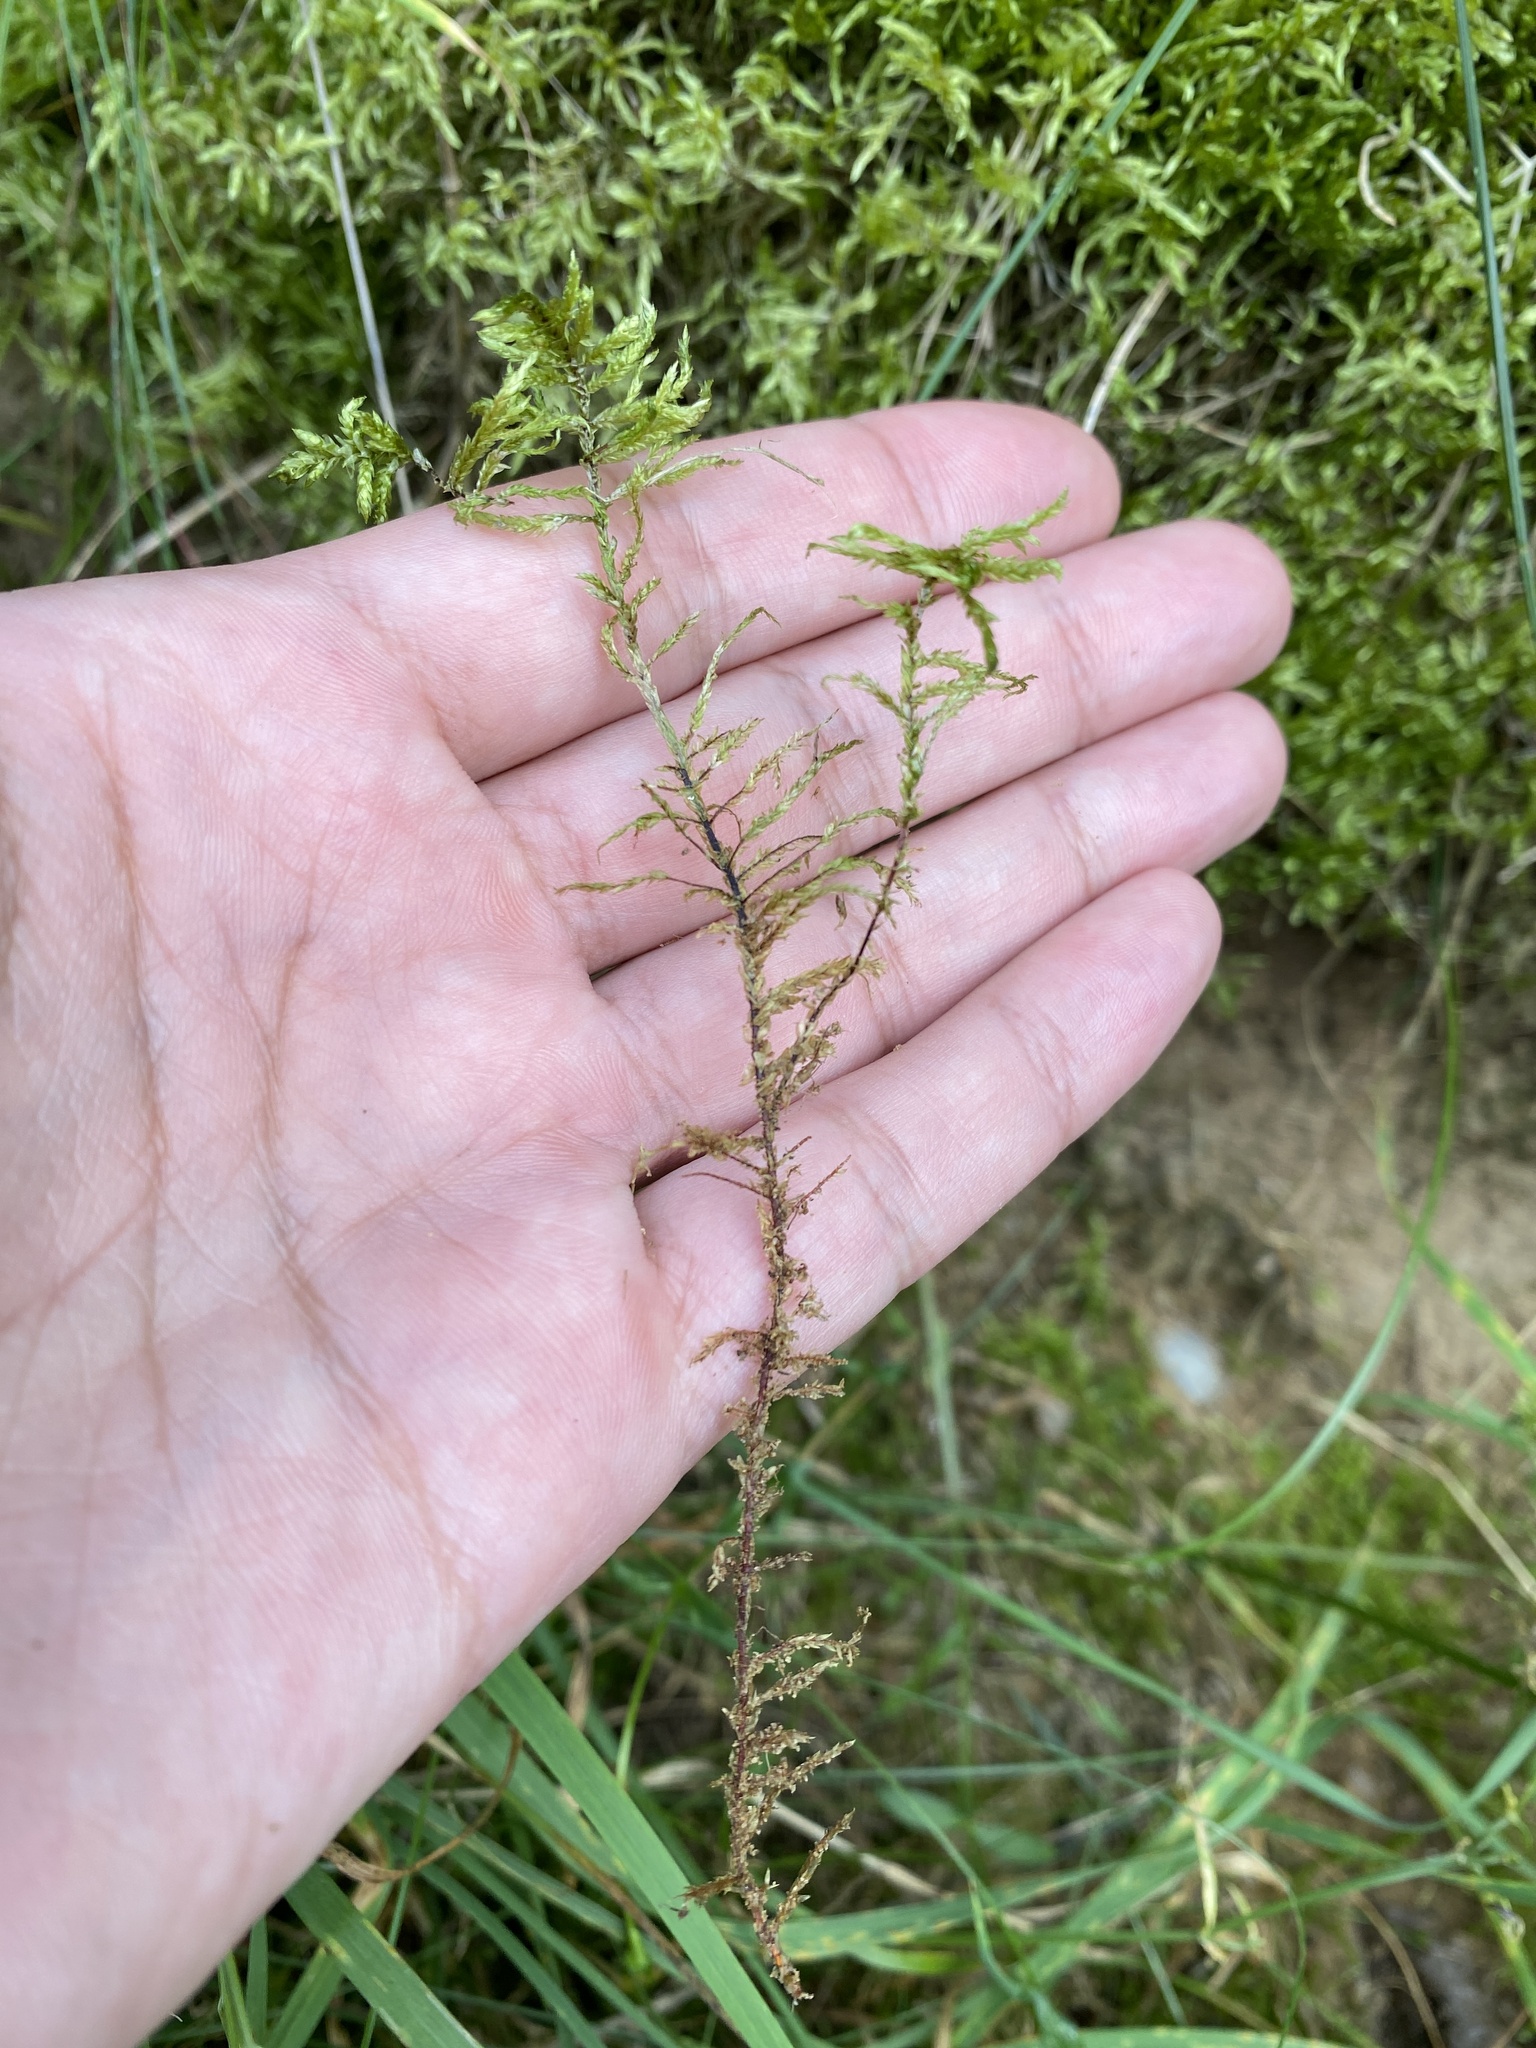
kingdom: Plantae
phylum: Bryophyta
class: Bryopsida
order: Hypnales
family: Hylocomiaceae
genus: Pleurozium
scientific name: Pleurozium schreberi
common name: Red-stemmed feather moss
